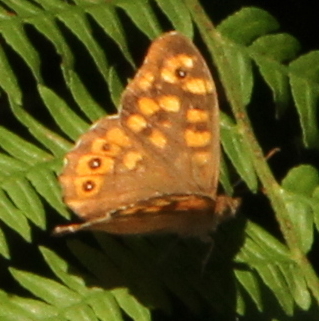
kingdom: Animalia
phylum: Arthropoda
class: Insecta
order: Lepidoptera
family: Nymphalidae
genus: Pararge
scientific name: Pararge aegeria
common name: Speckled wood
